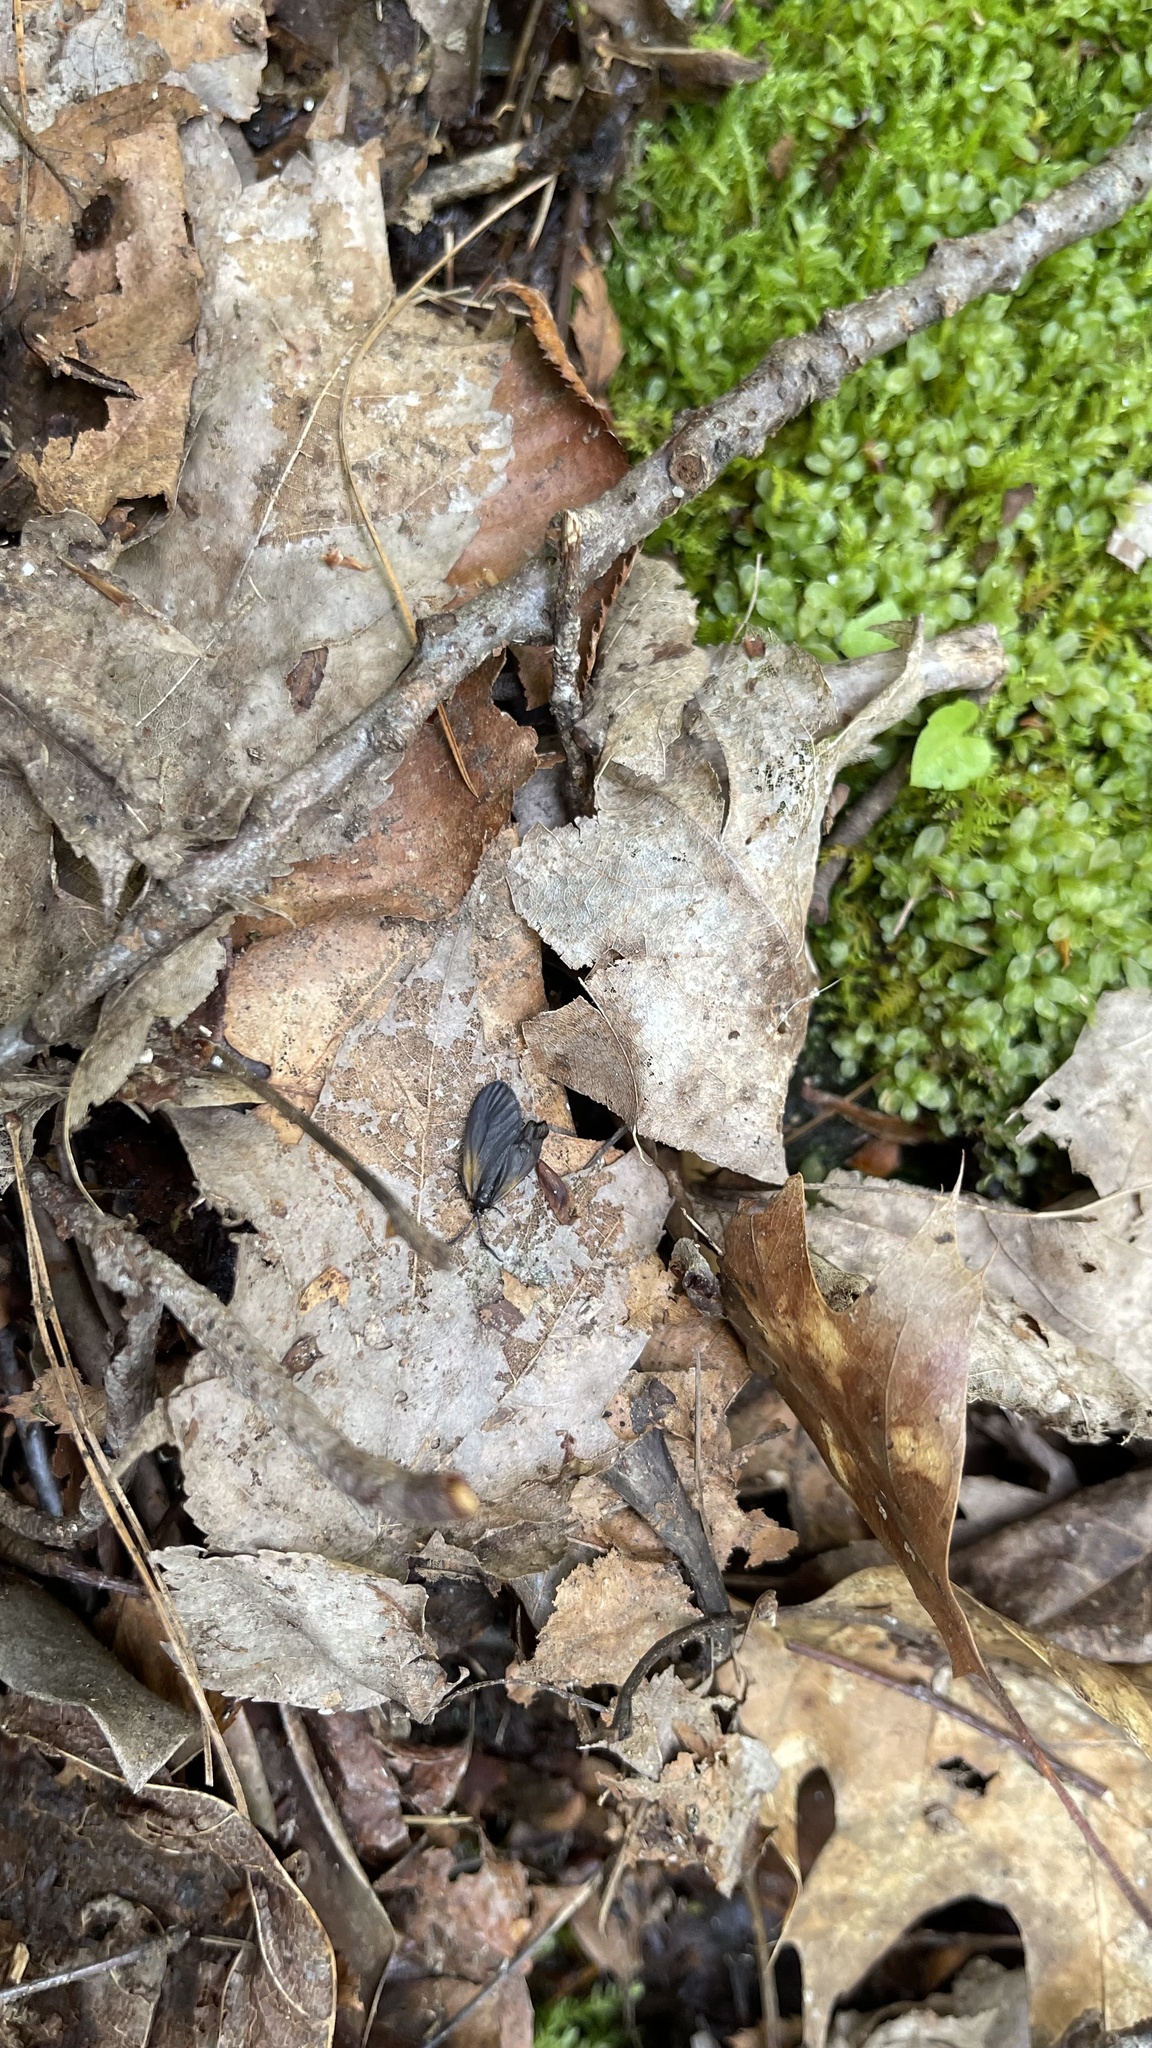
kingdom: Animalia
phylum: Arthropoda
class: Insecta
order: Lepidoptera
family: Zygaenidae
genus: Malthaca
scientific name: Malthaca dimidiata
